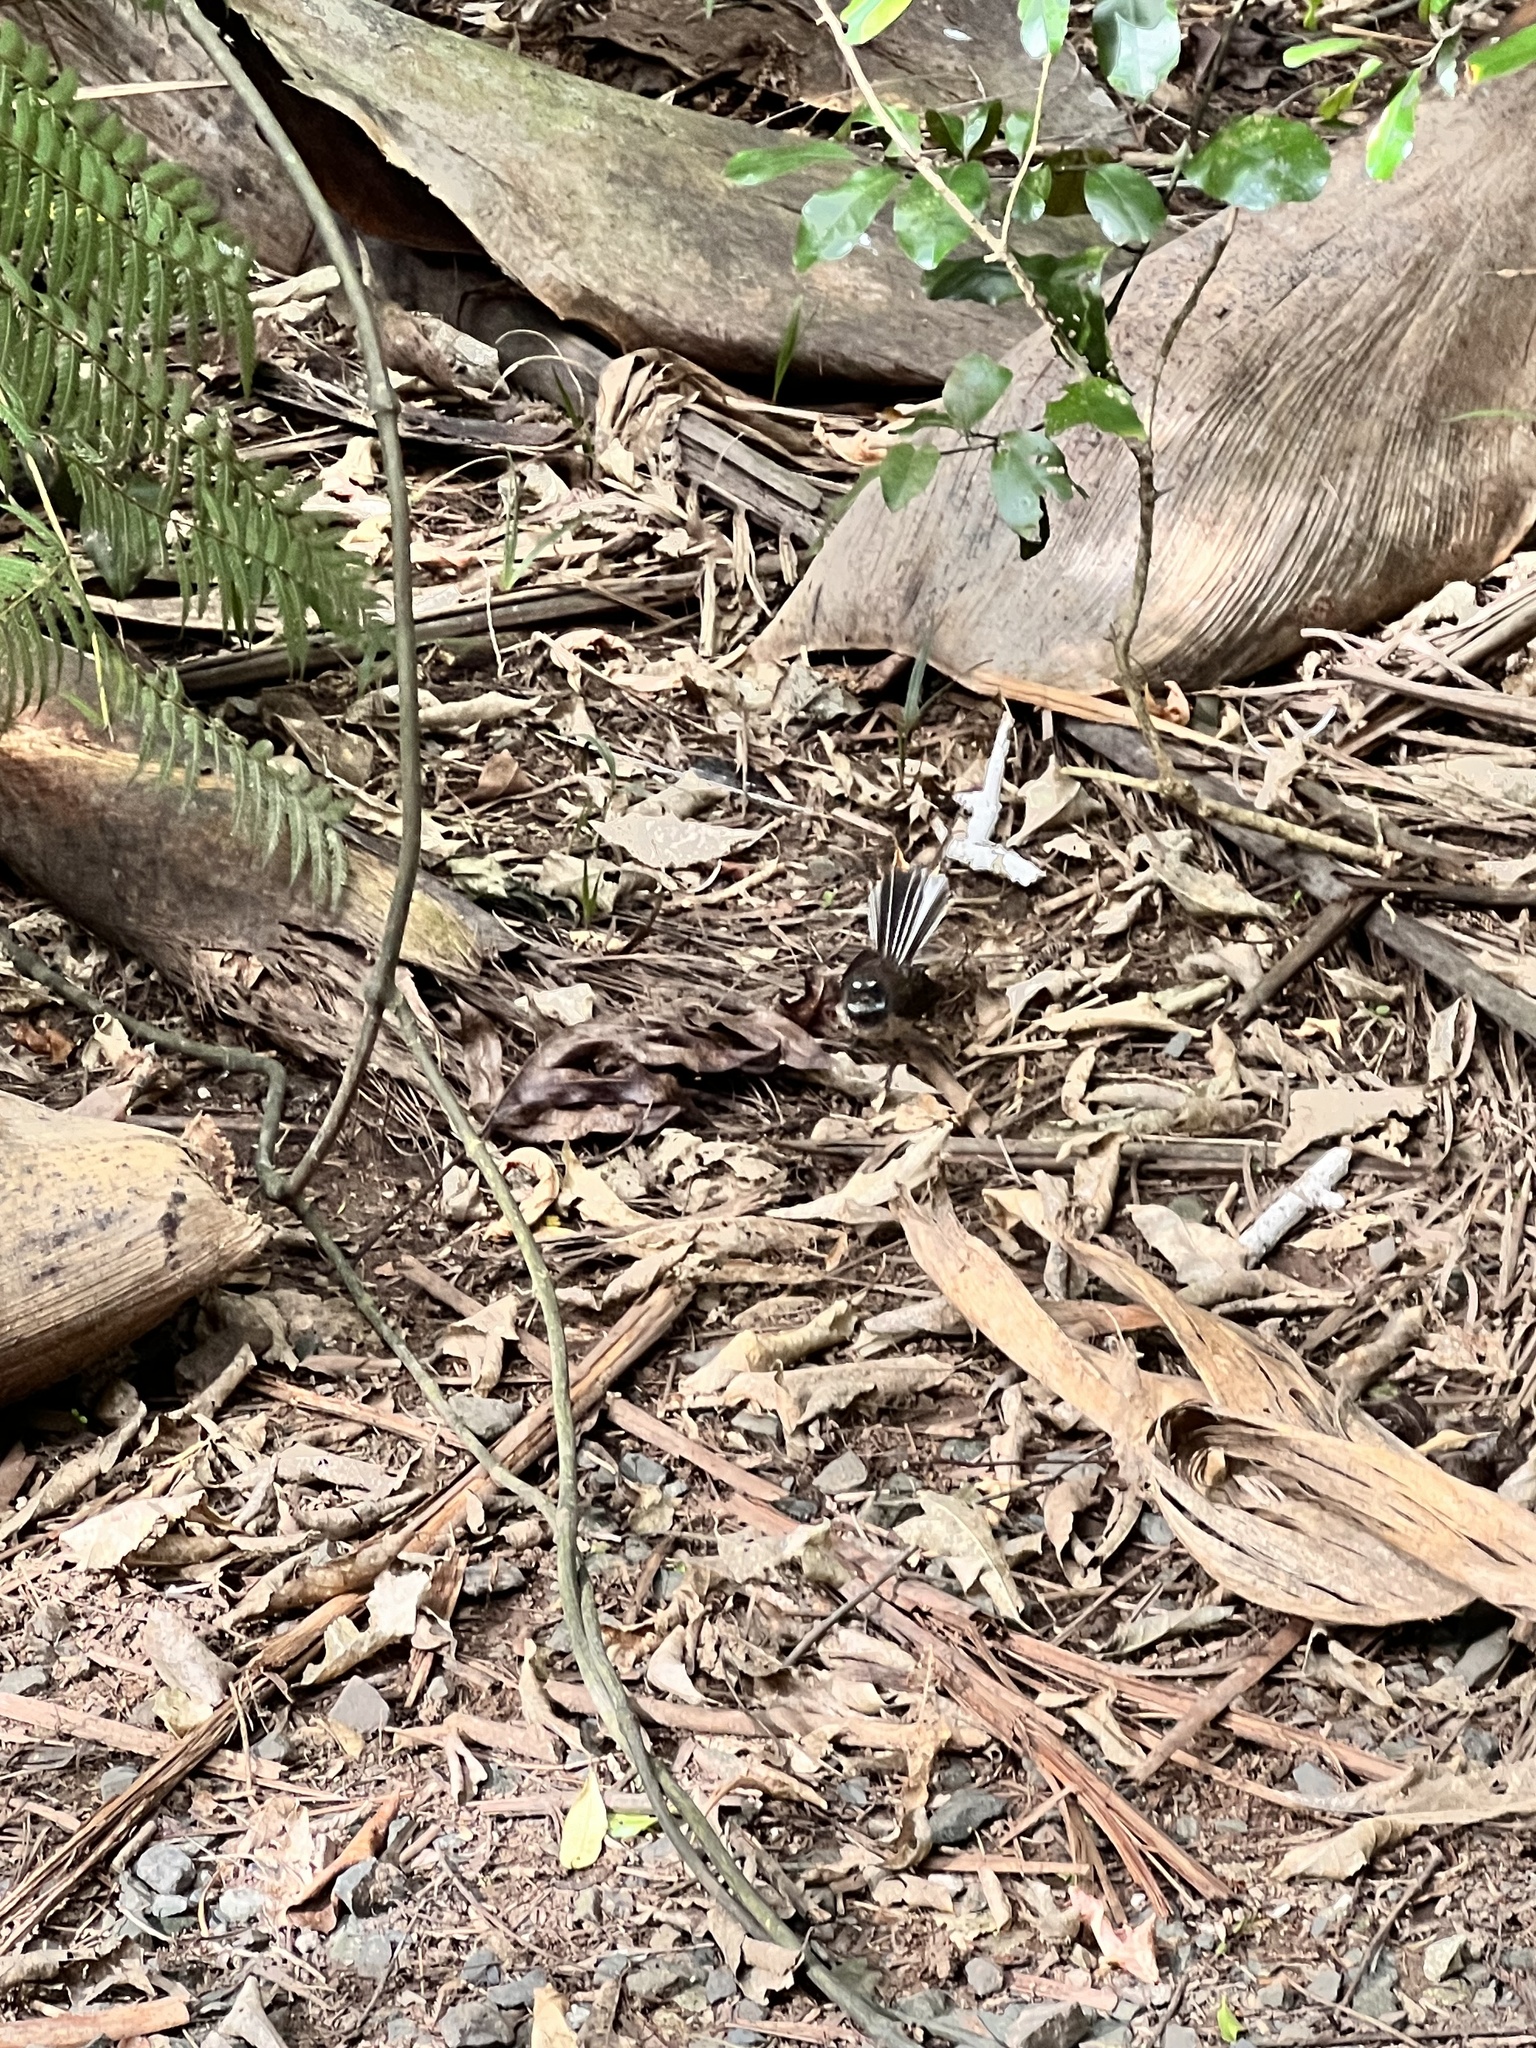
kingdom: Animalia
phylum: Chordata
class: Aves
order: Passeriformes
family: Rhipiduridae
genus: Rhipidura
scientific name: Rhipidura fuliginosa
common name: New zealand fantail
